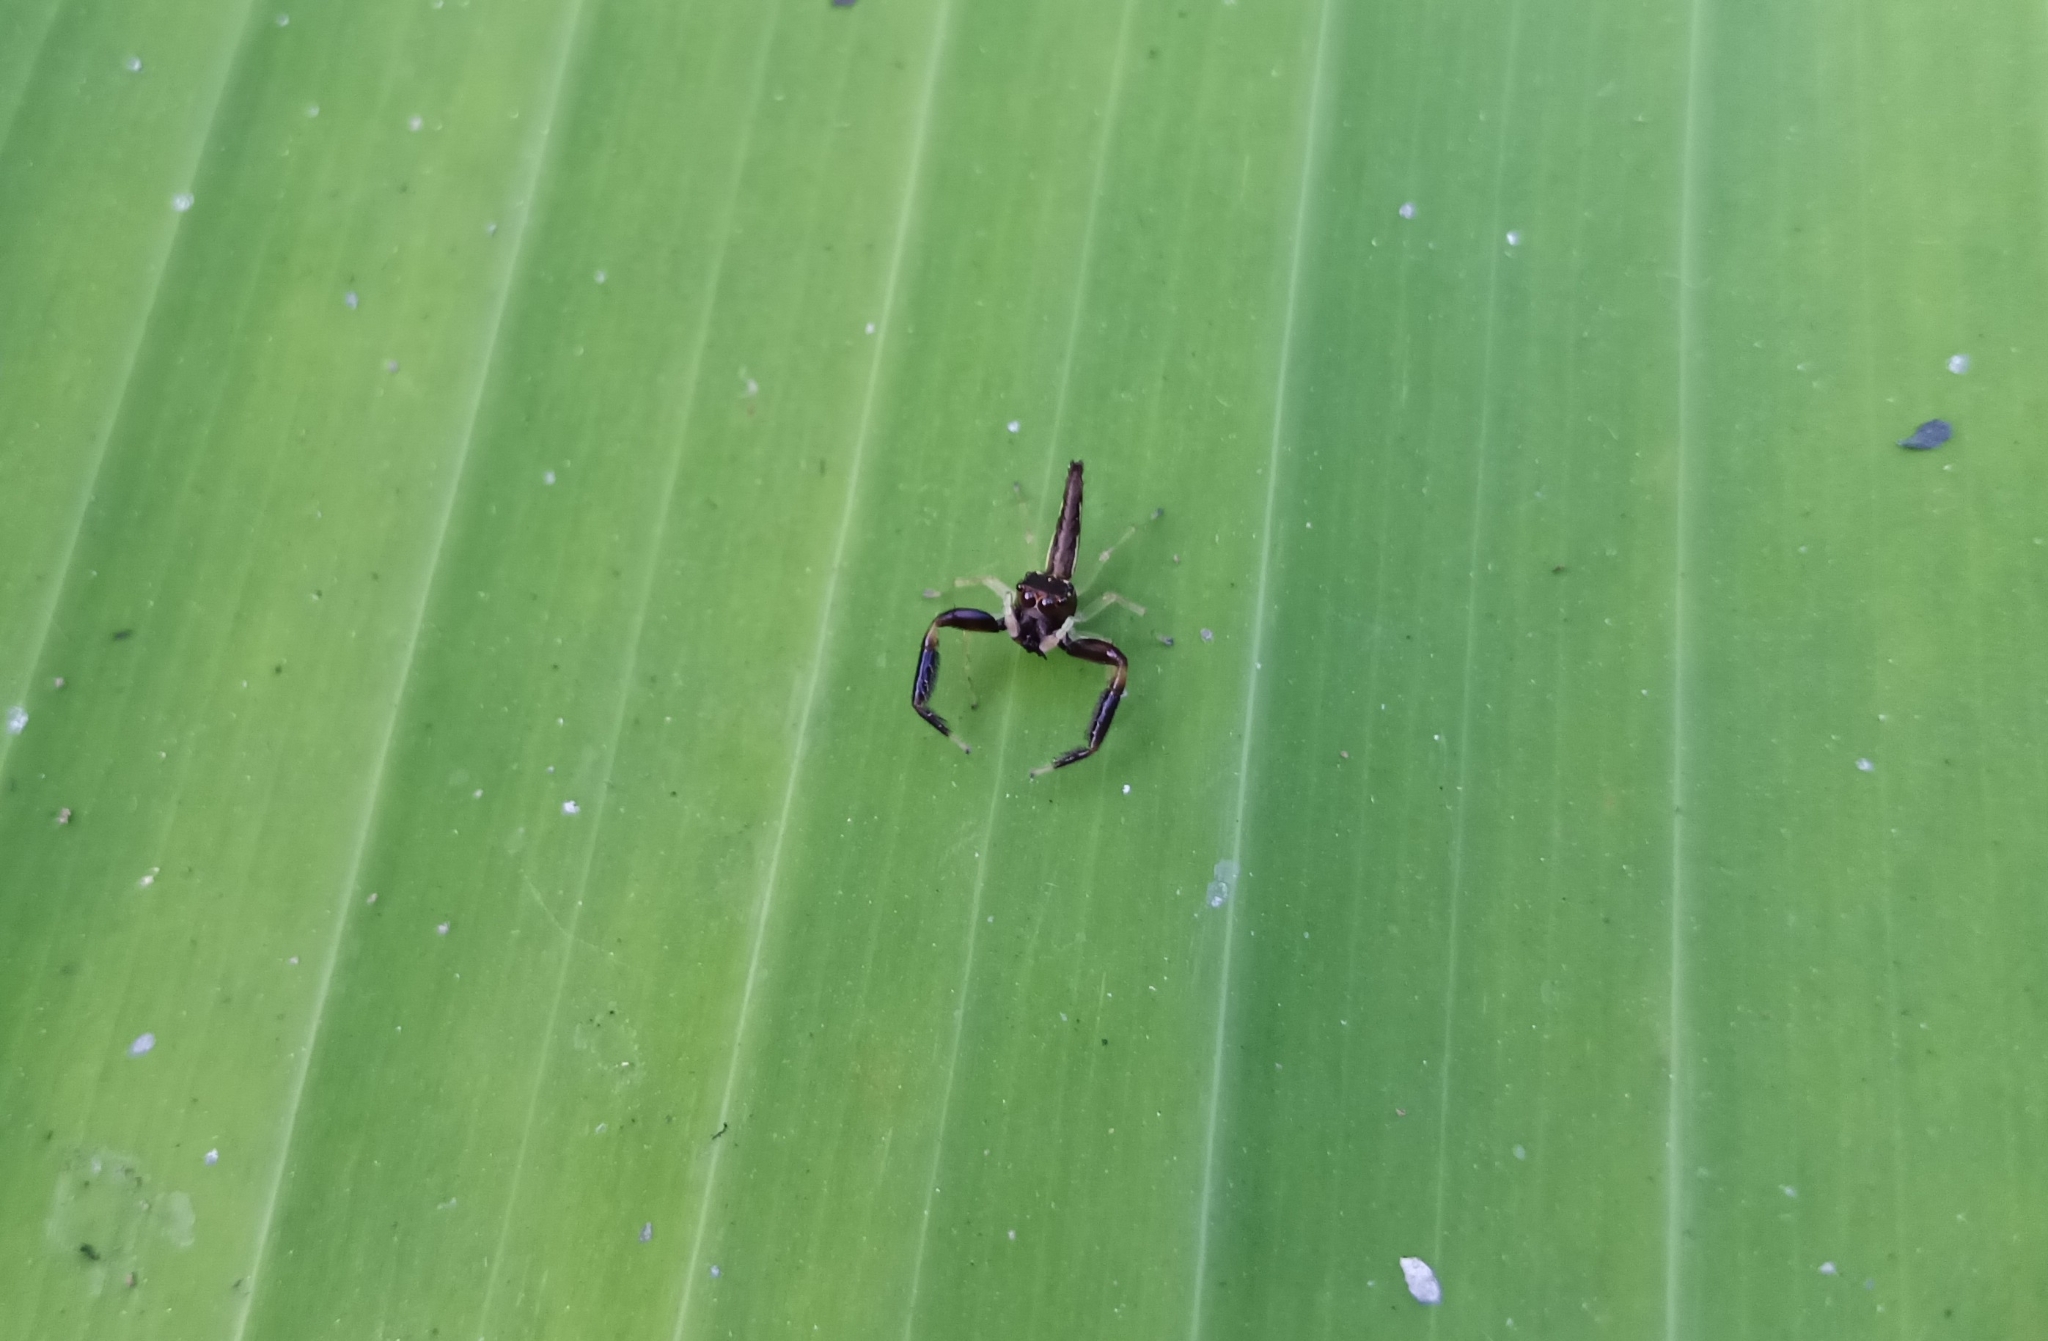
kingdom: Animalia
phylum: Arthropoda
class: Arachnida
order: Araneae
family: Salticidae
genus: Indopadilla
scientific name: Indopadilla insularis
